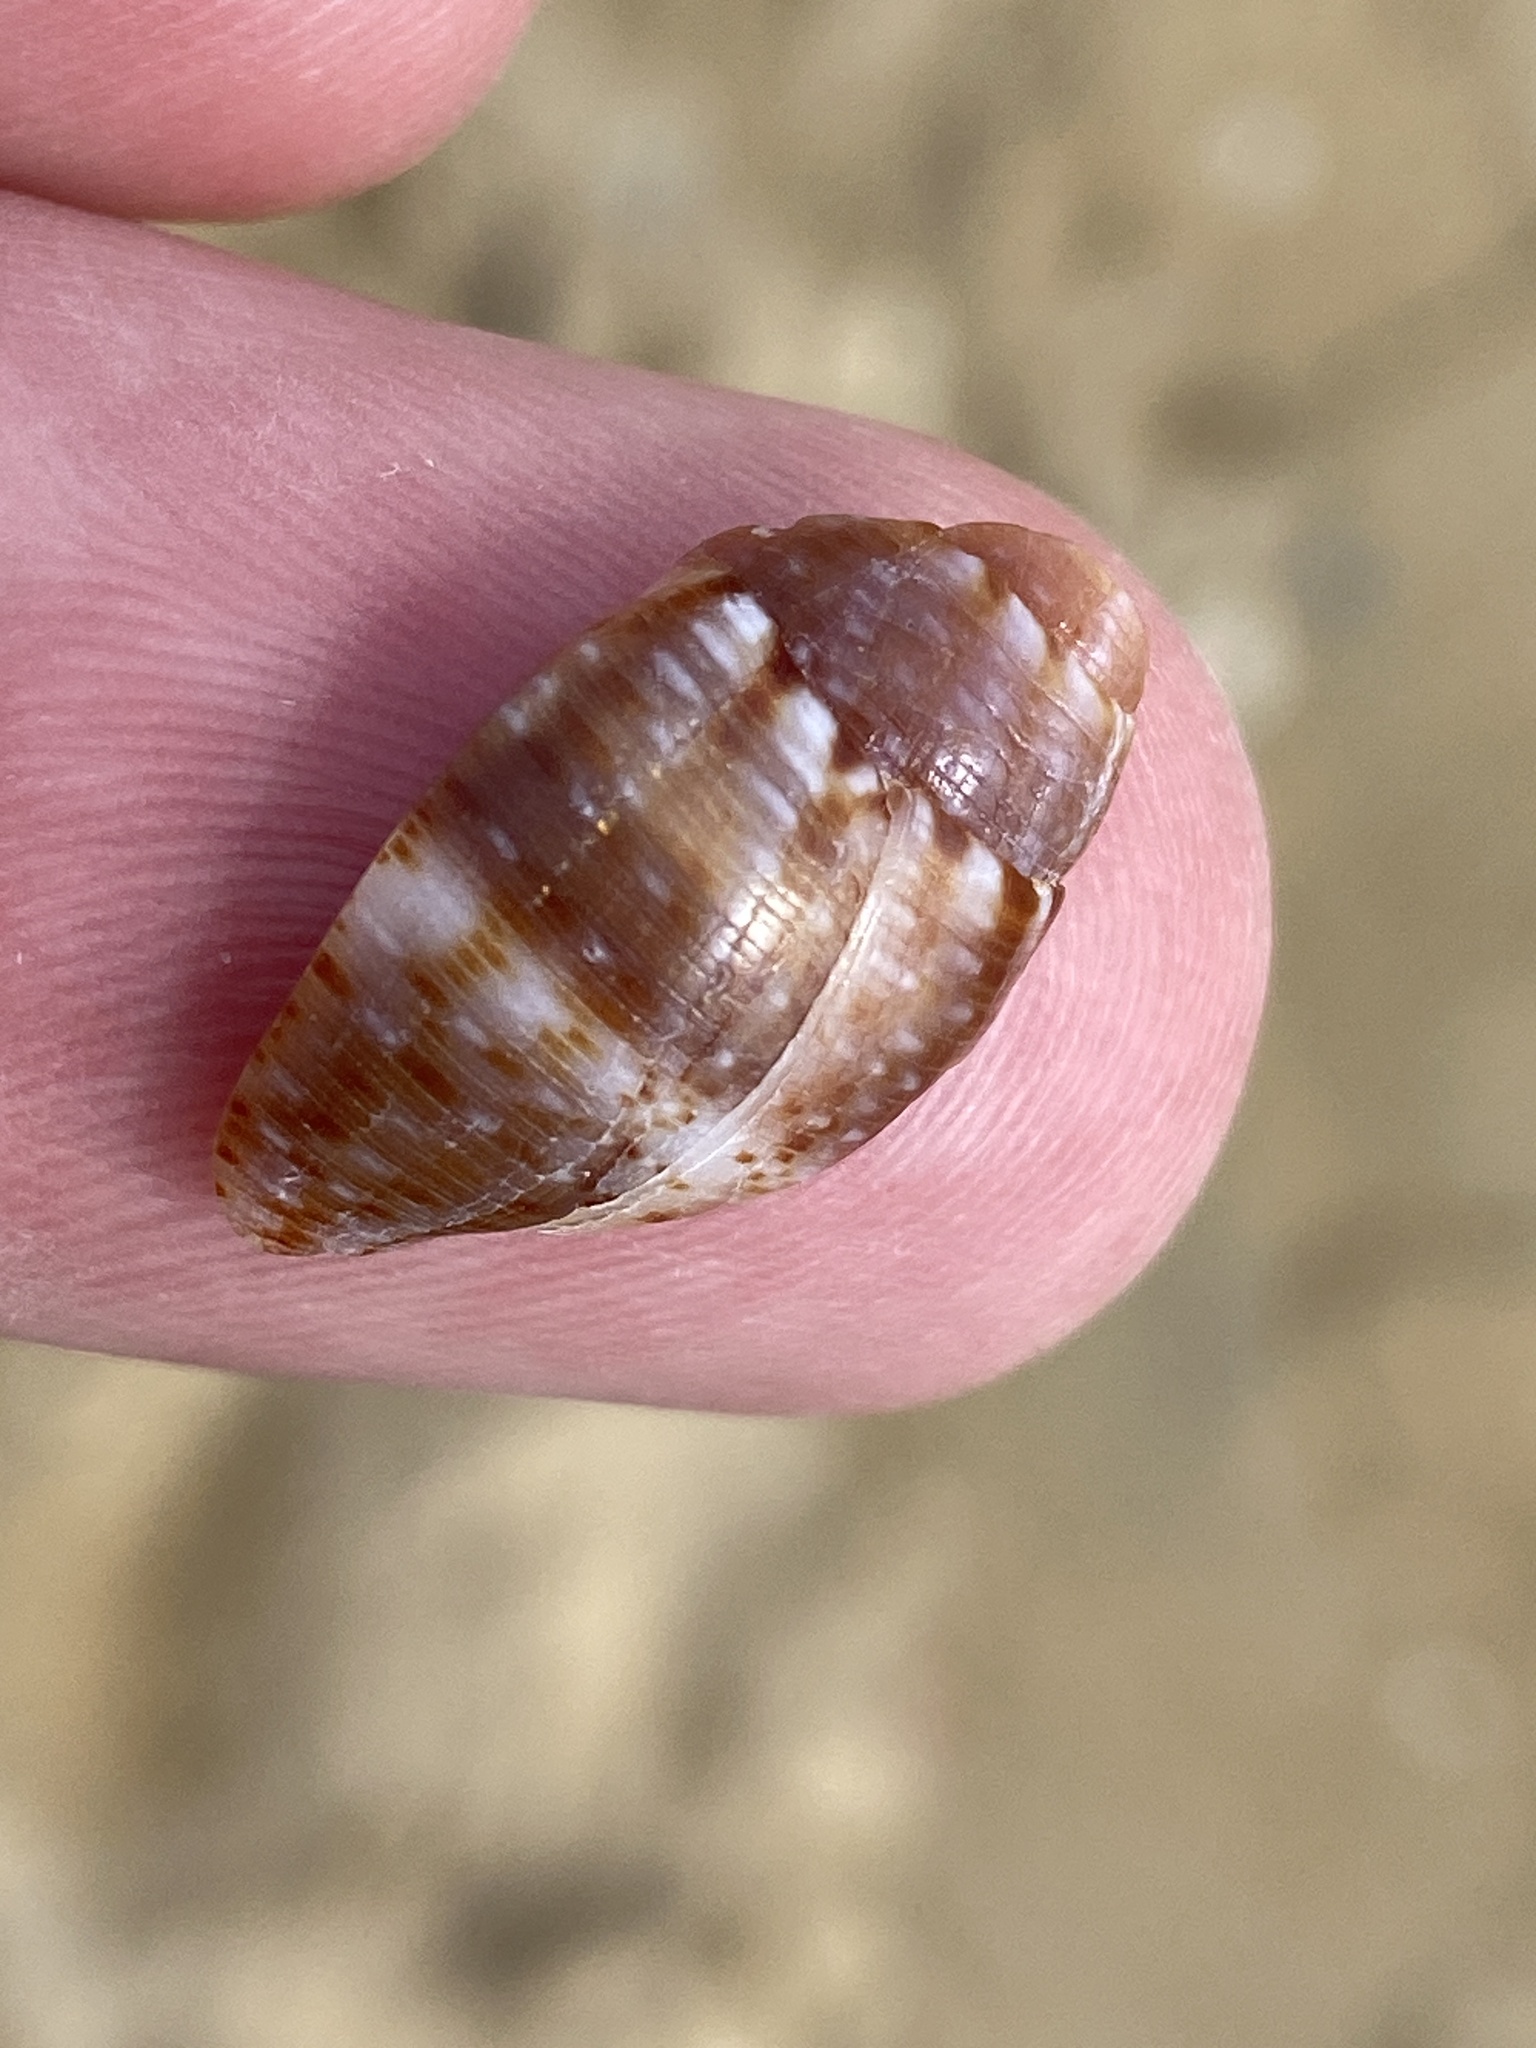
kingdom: Animalia
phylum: Mollusca
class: Gastropoda
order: Neogastropoda
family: Pisaniidae
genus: Pisania
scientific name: Pisania striata
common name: Spotted pisania
